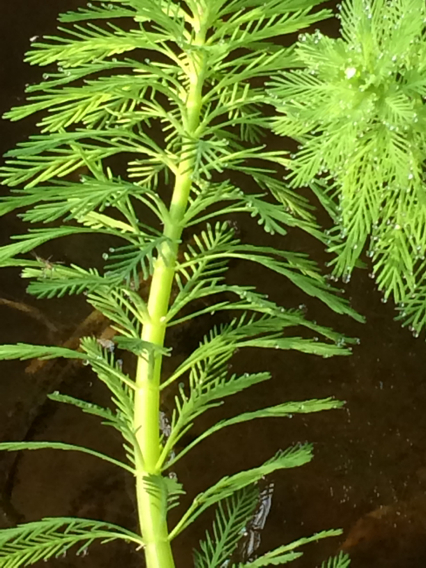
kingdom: Plantae
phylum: Tracheophyta
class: Magnoliopsida
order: Saxifragales
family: Haloragaceae
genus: Myriophyllum
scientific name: Myriophyllum aquaticum
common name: Parrot's feather
